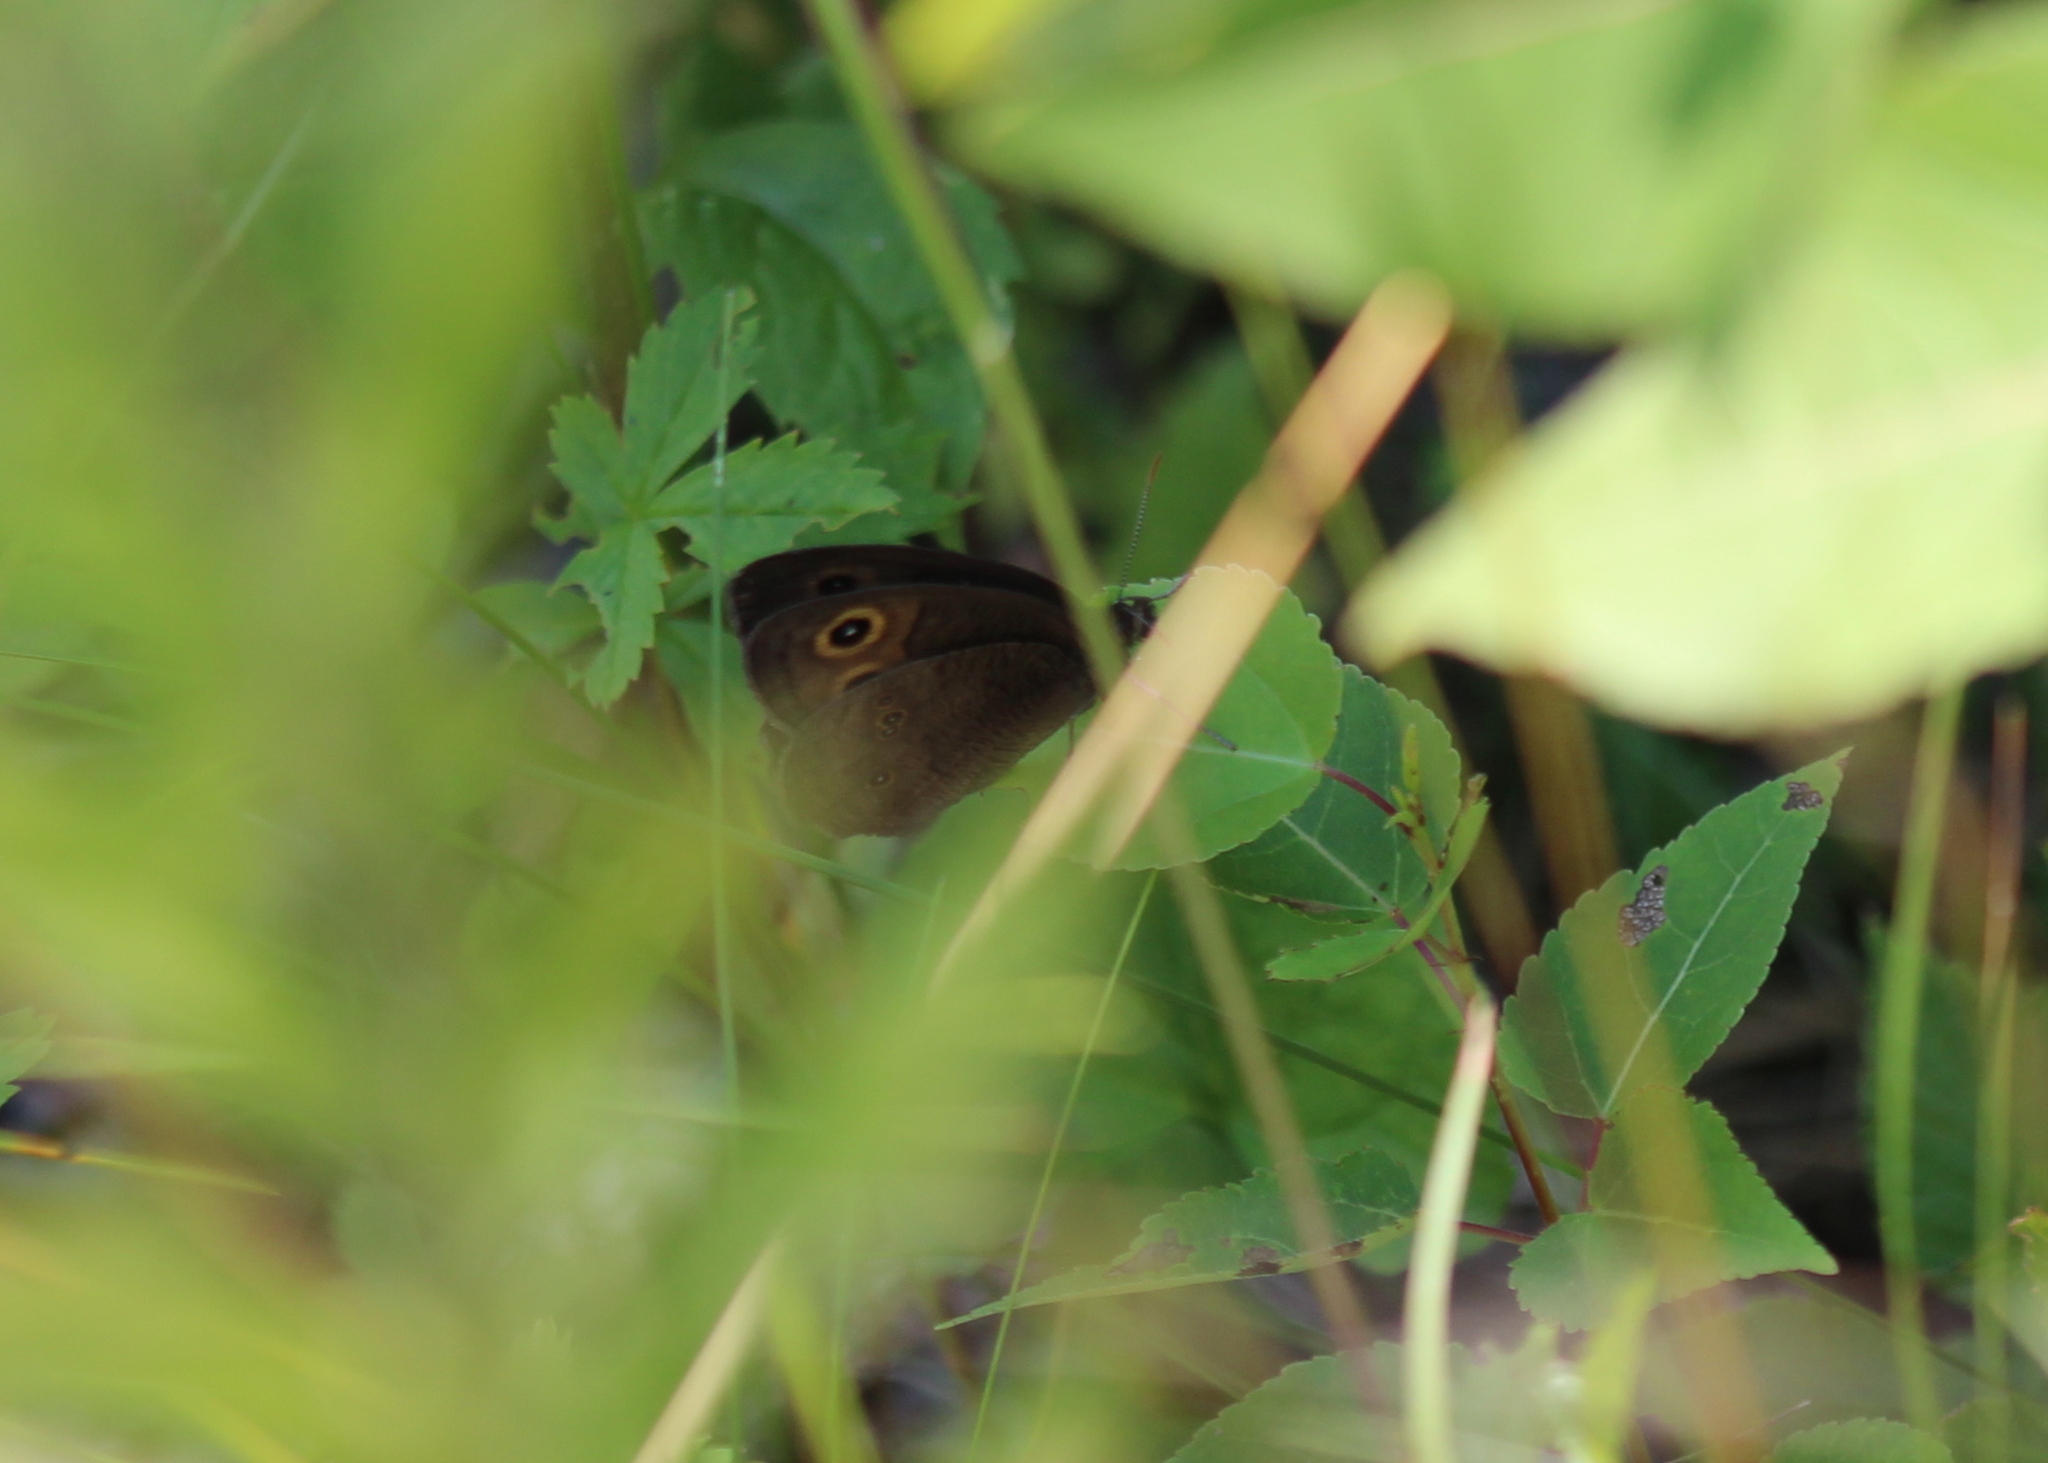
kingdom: Animalia
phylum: Arthropoda
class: Insecta
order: Lepidoptera
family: Nymphalidae
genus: Cercyonis
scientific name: Cercyonis pegala
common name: Common wood-nymph
